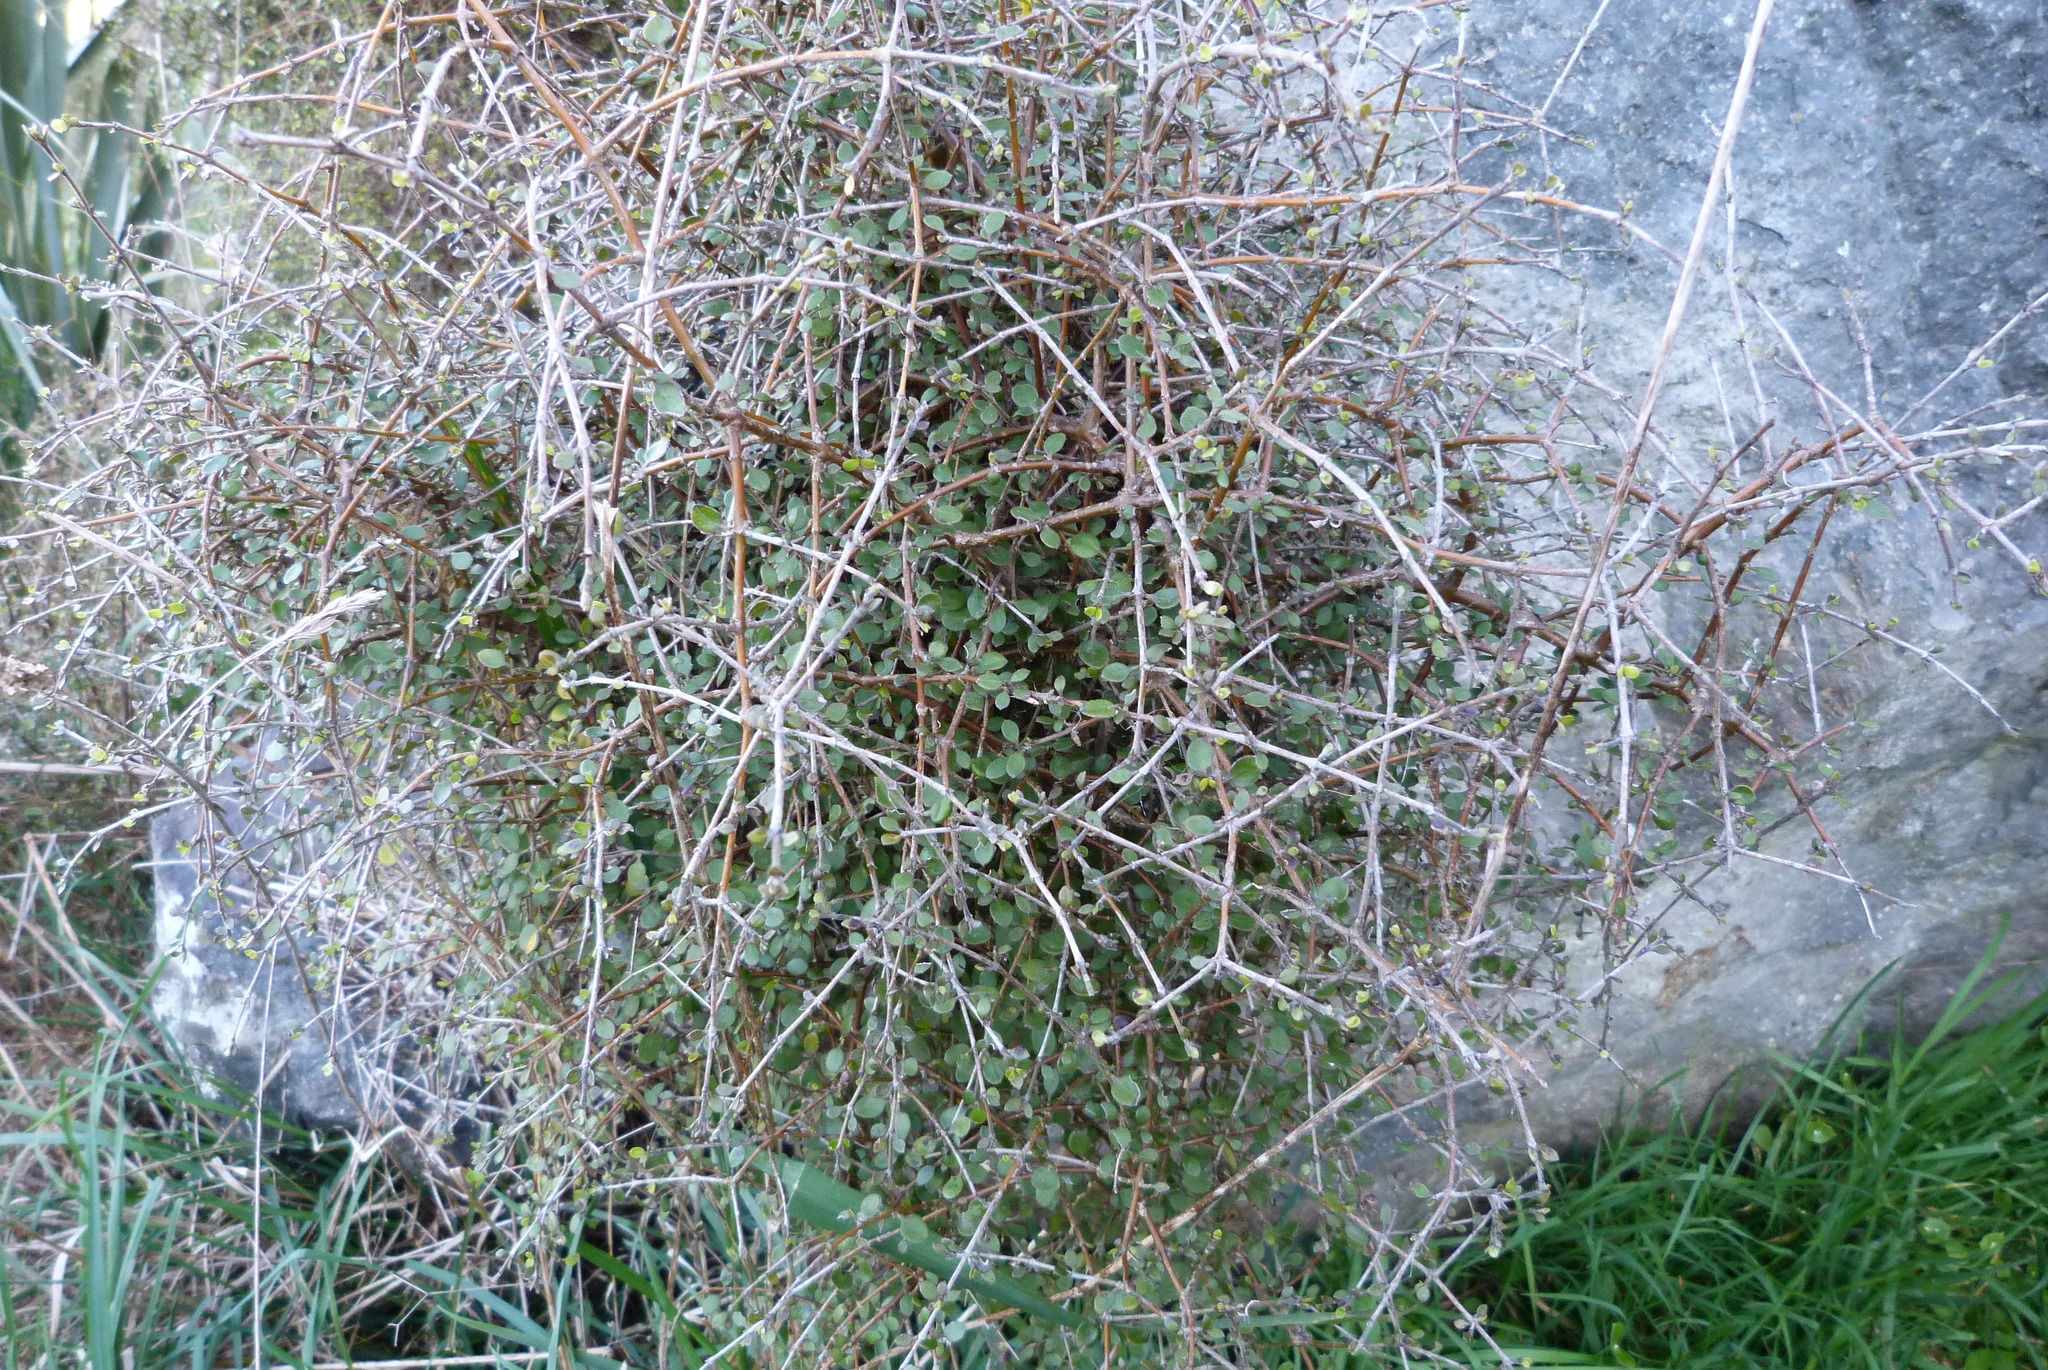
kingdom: Plantae
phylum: Tracheophyta
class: Magnoliopsida
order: Gentianales
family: Rubiaceae
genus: Coprosma
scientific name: Coprosma crassifolia
